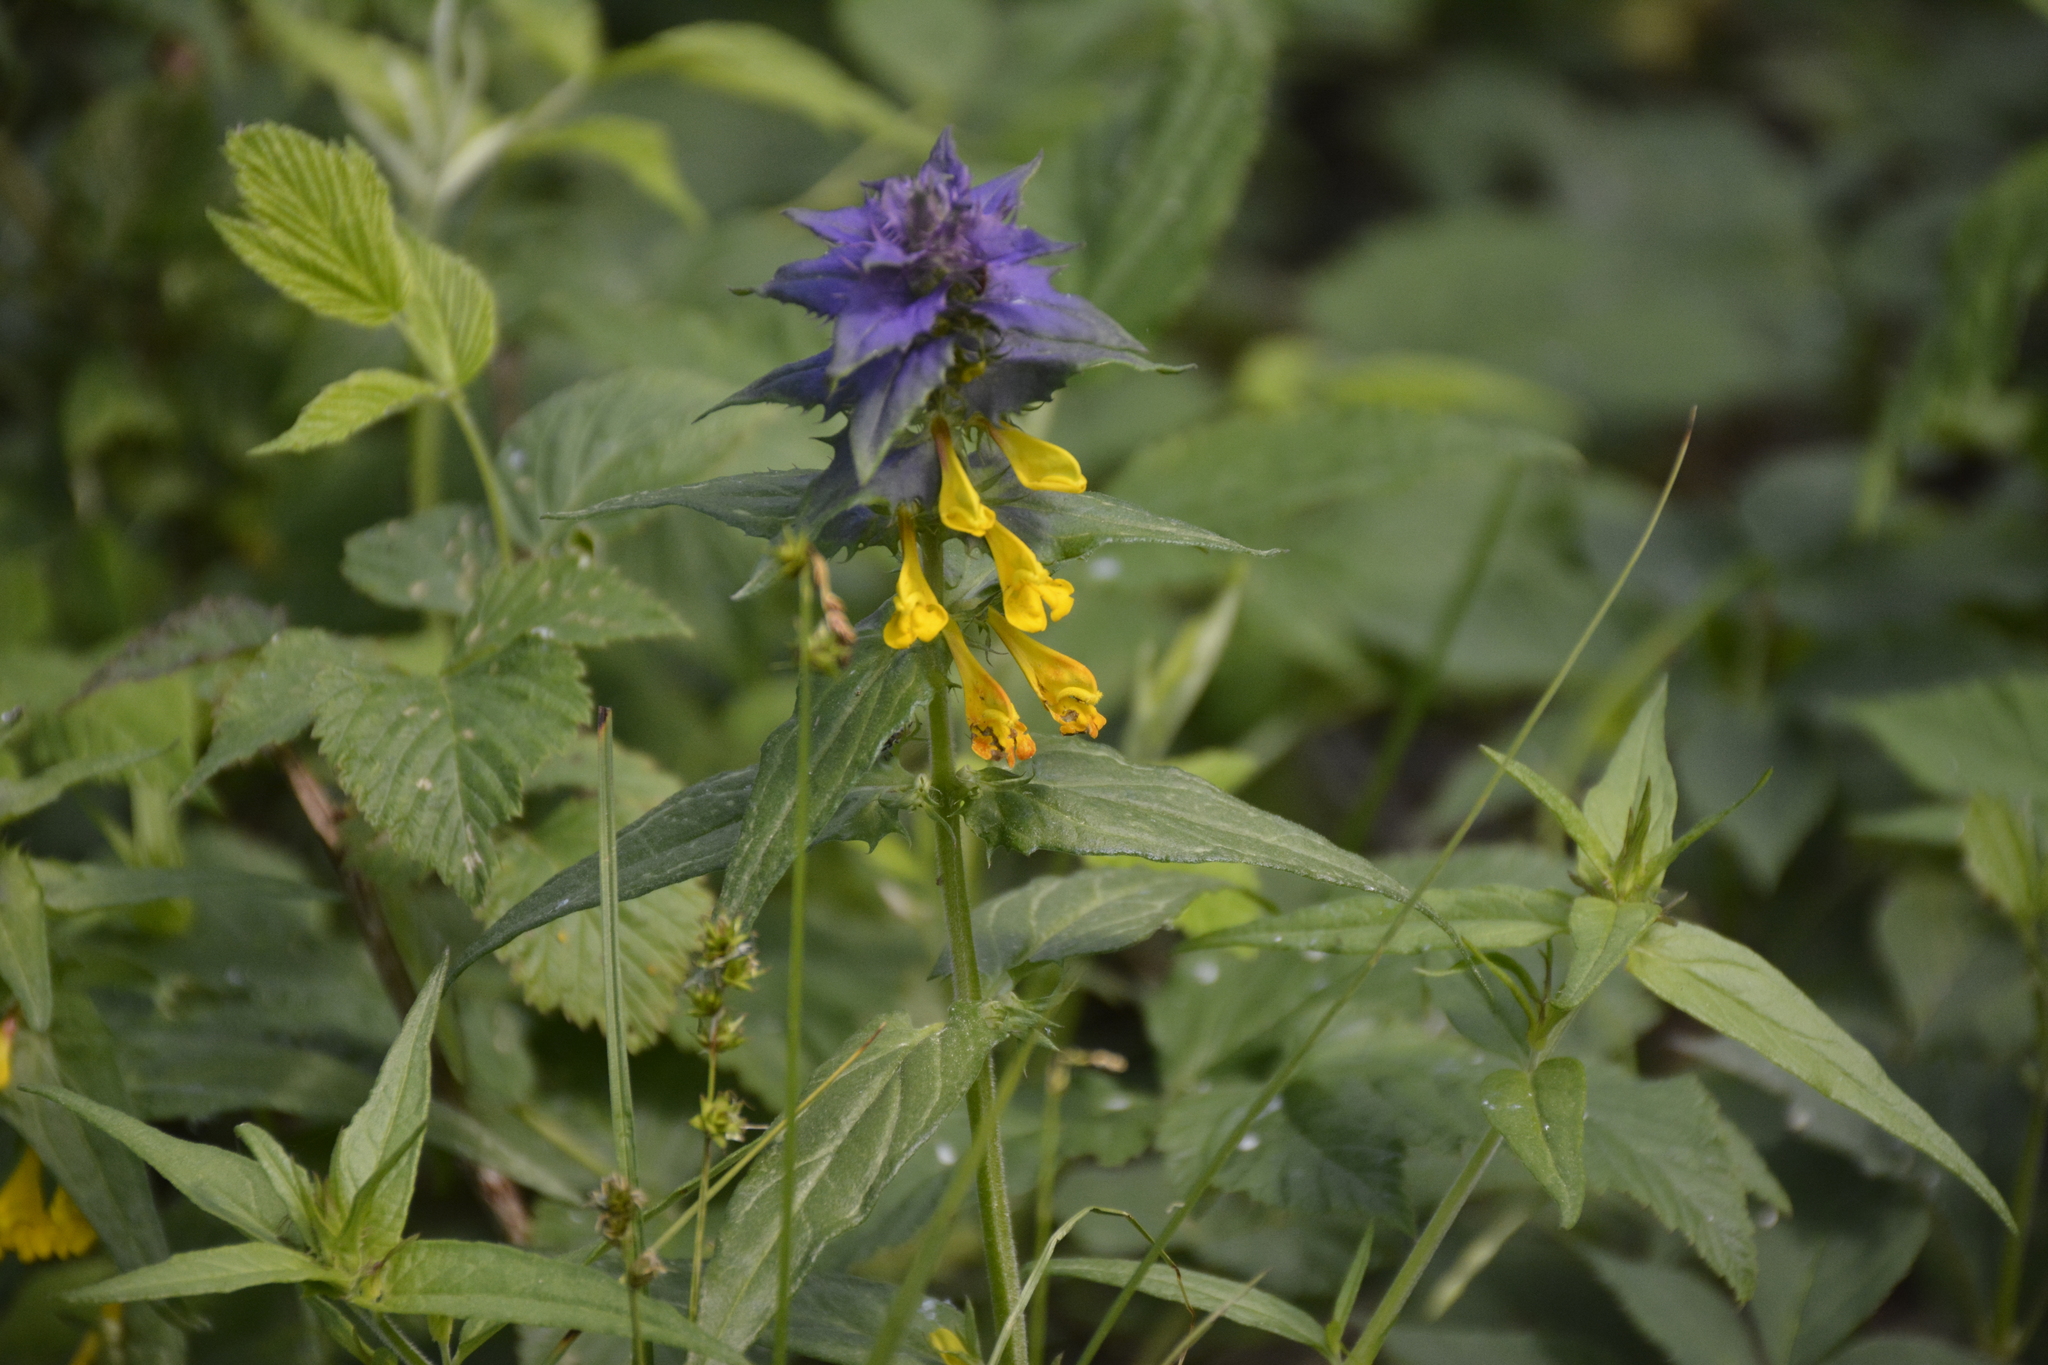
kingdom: Plantae
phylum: Tracheophyta
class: Magnoliopsida
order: Lamiales
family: Orobanchaceae
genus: Melampyrum
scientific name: Melampyrum nemorosum
